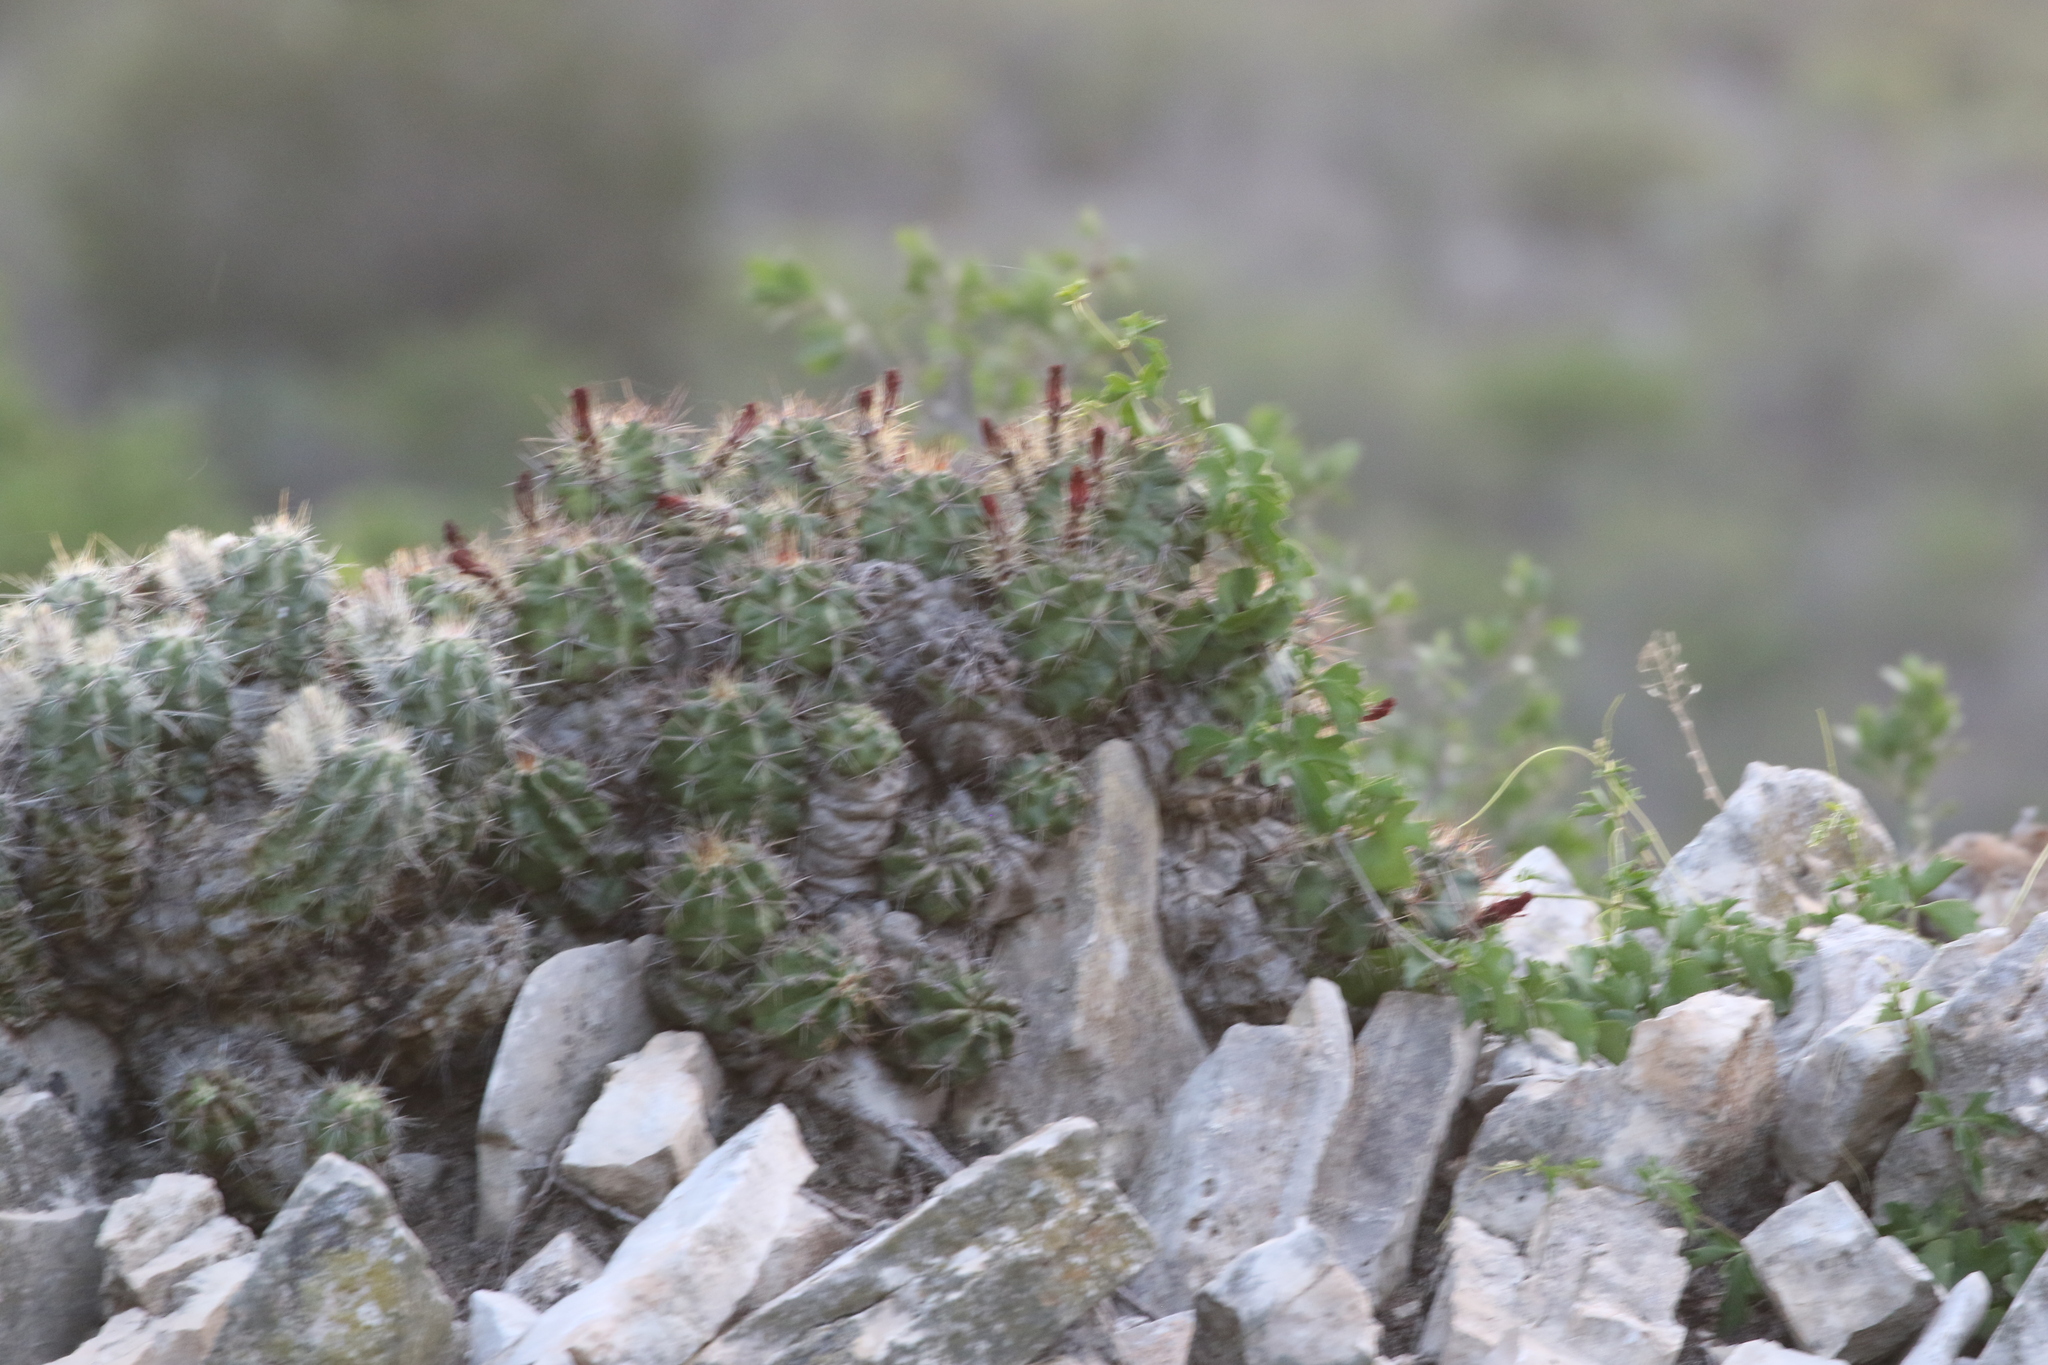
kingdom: Plantae
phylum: Tracheophyta
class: Magnoliopsida
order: Caryophyllales
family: Cactaceae
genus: Echinocereus
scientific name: Echinocereus coccineus
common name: Scarlet hedgehog cactus
